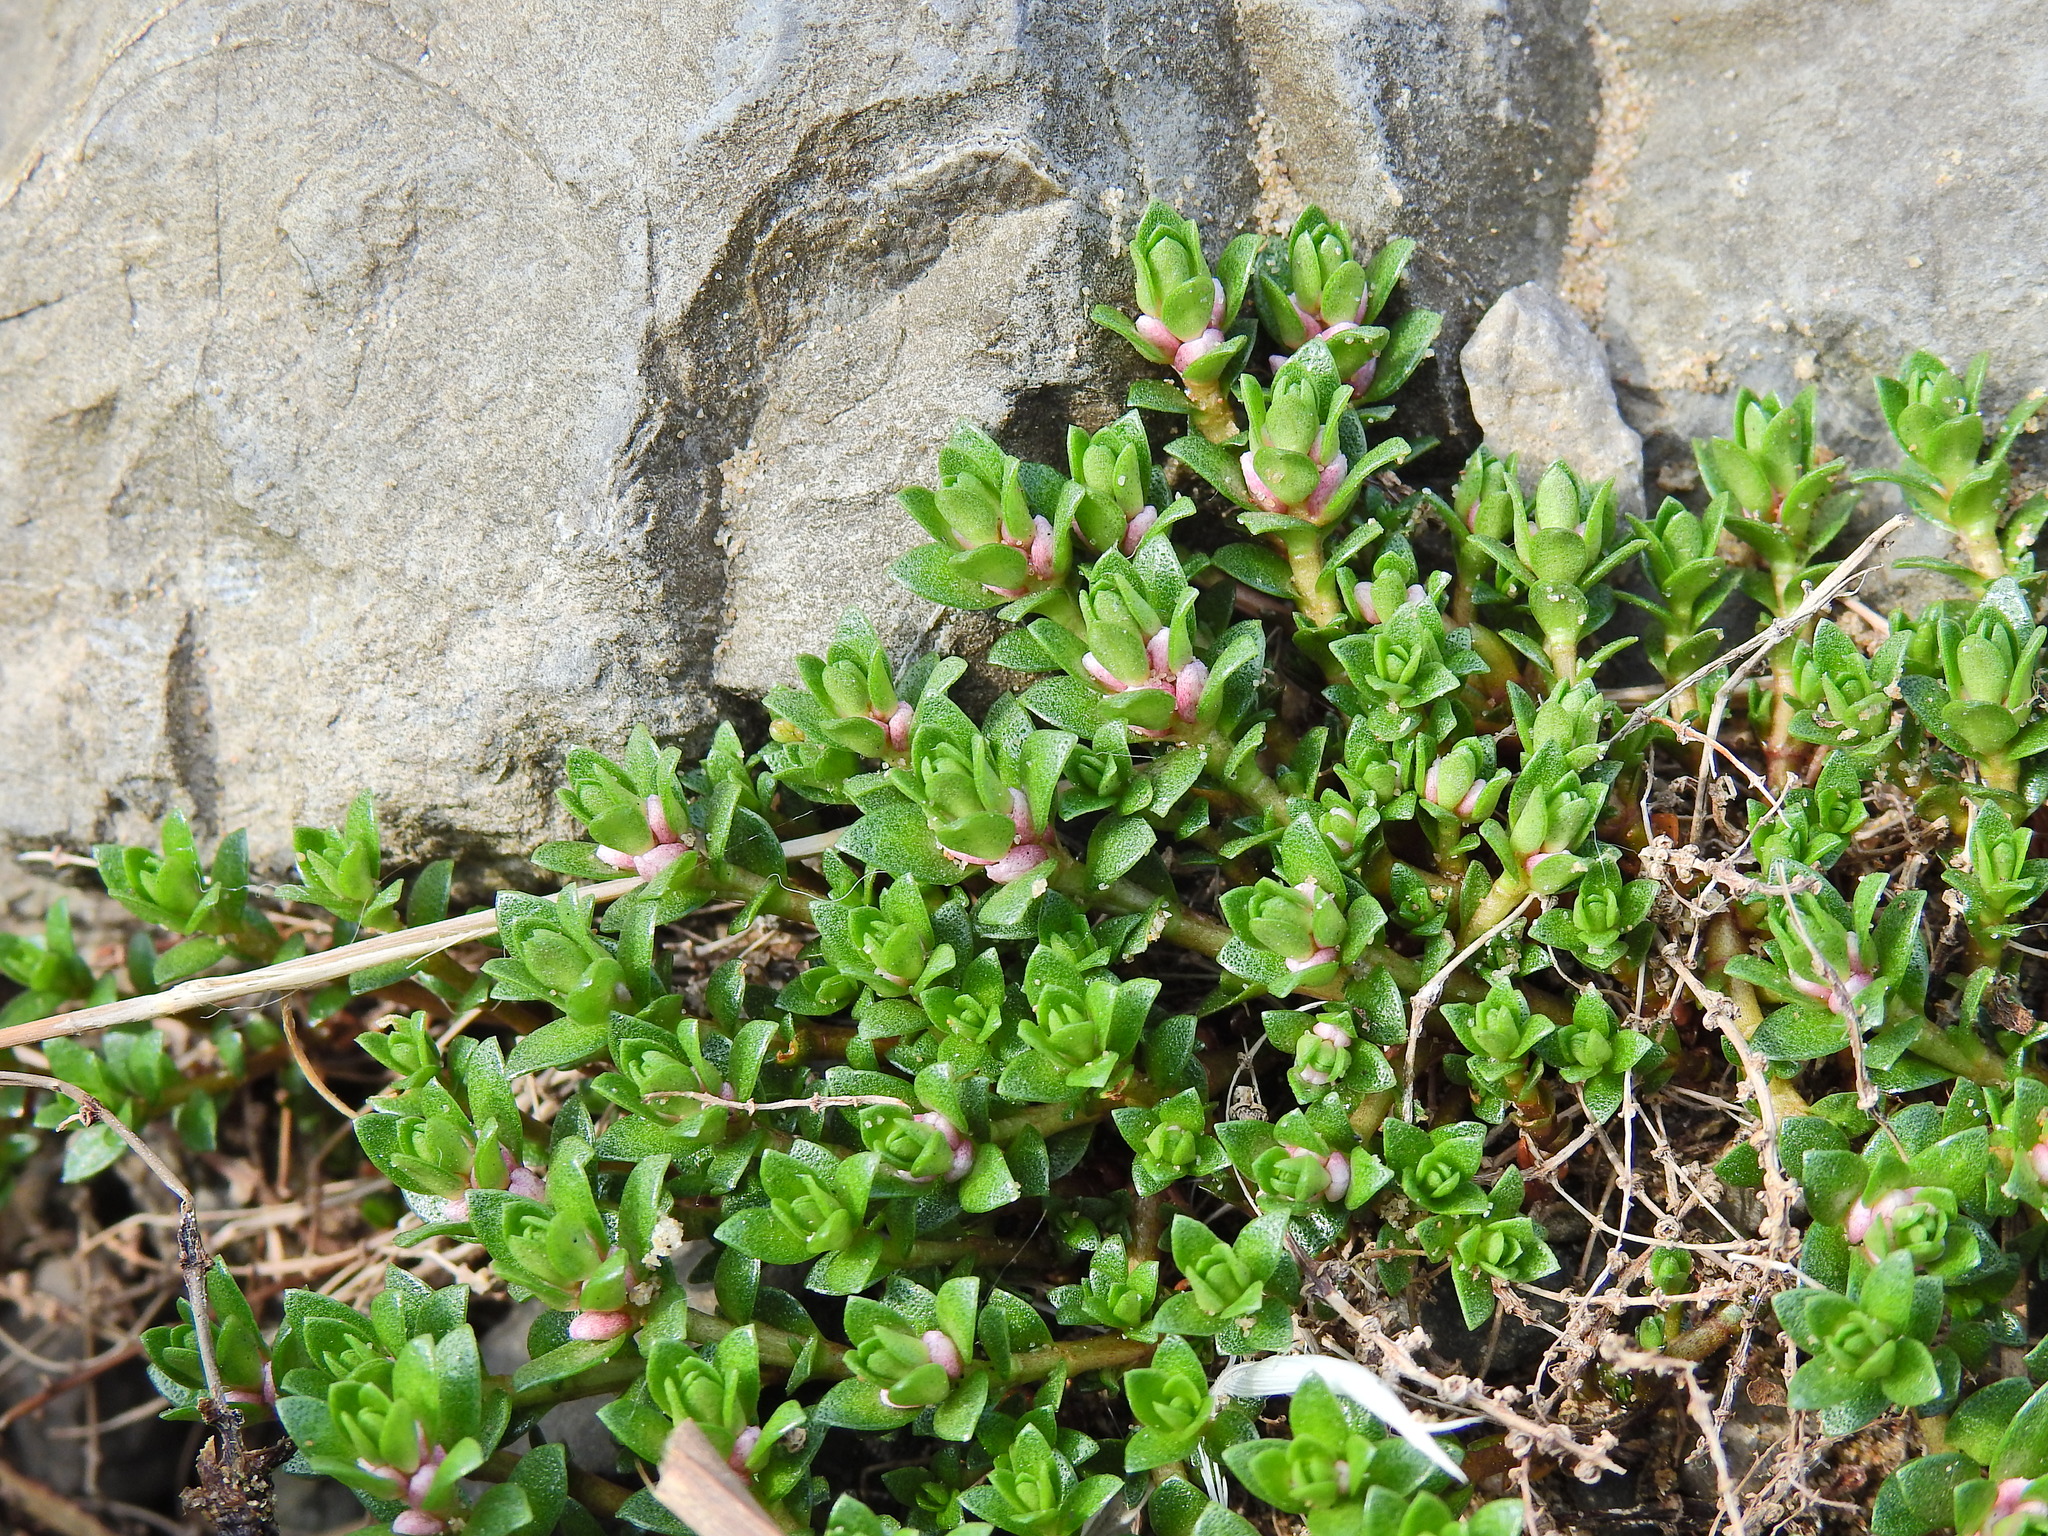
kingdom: Plantae
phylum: Tracheophyta
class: Magnoliopsida
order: Ericales
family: Primulaceae
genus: Lysimachia
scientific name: Lysimachia maritima
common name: Sea milkwort
